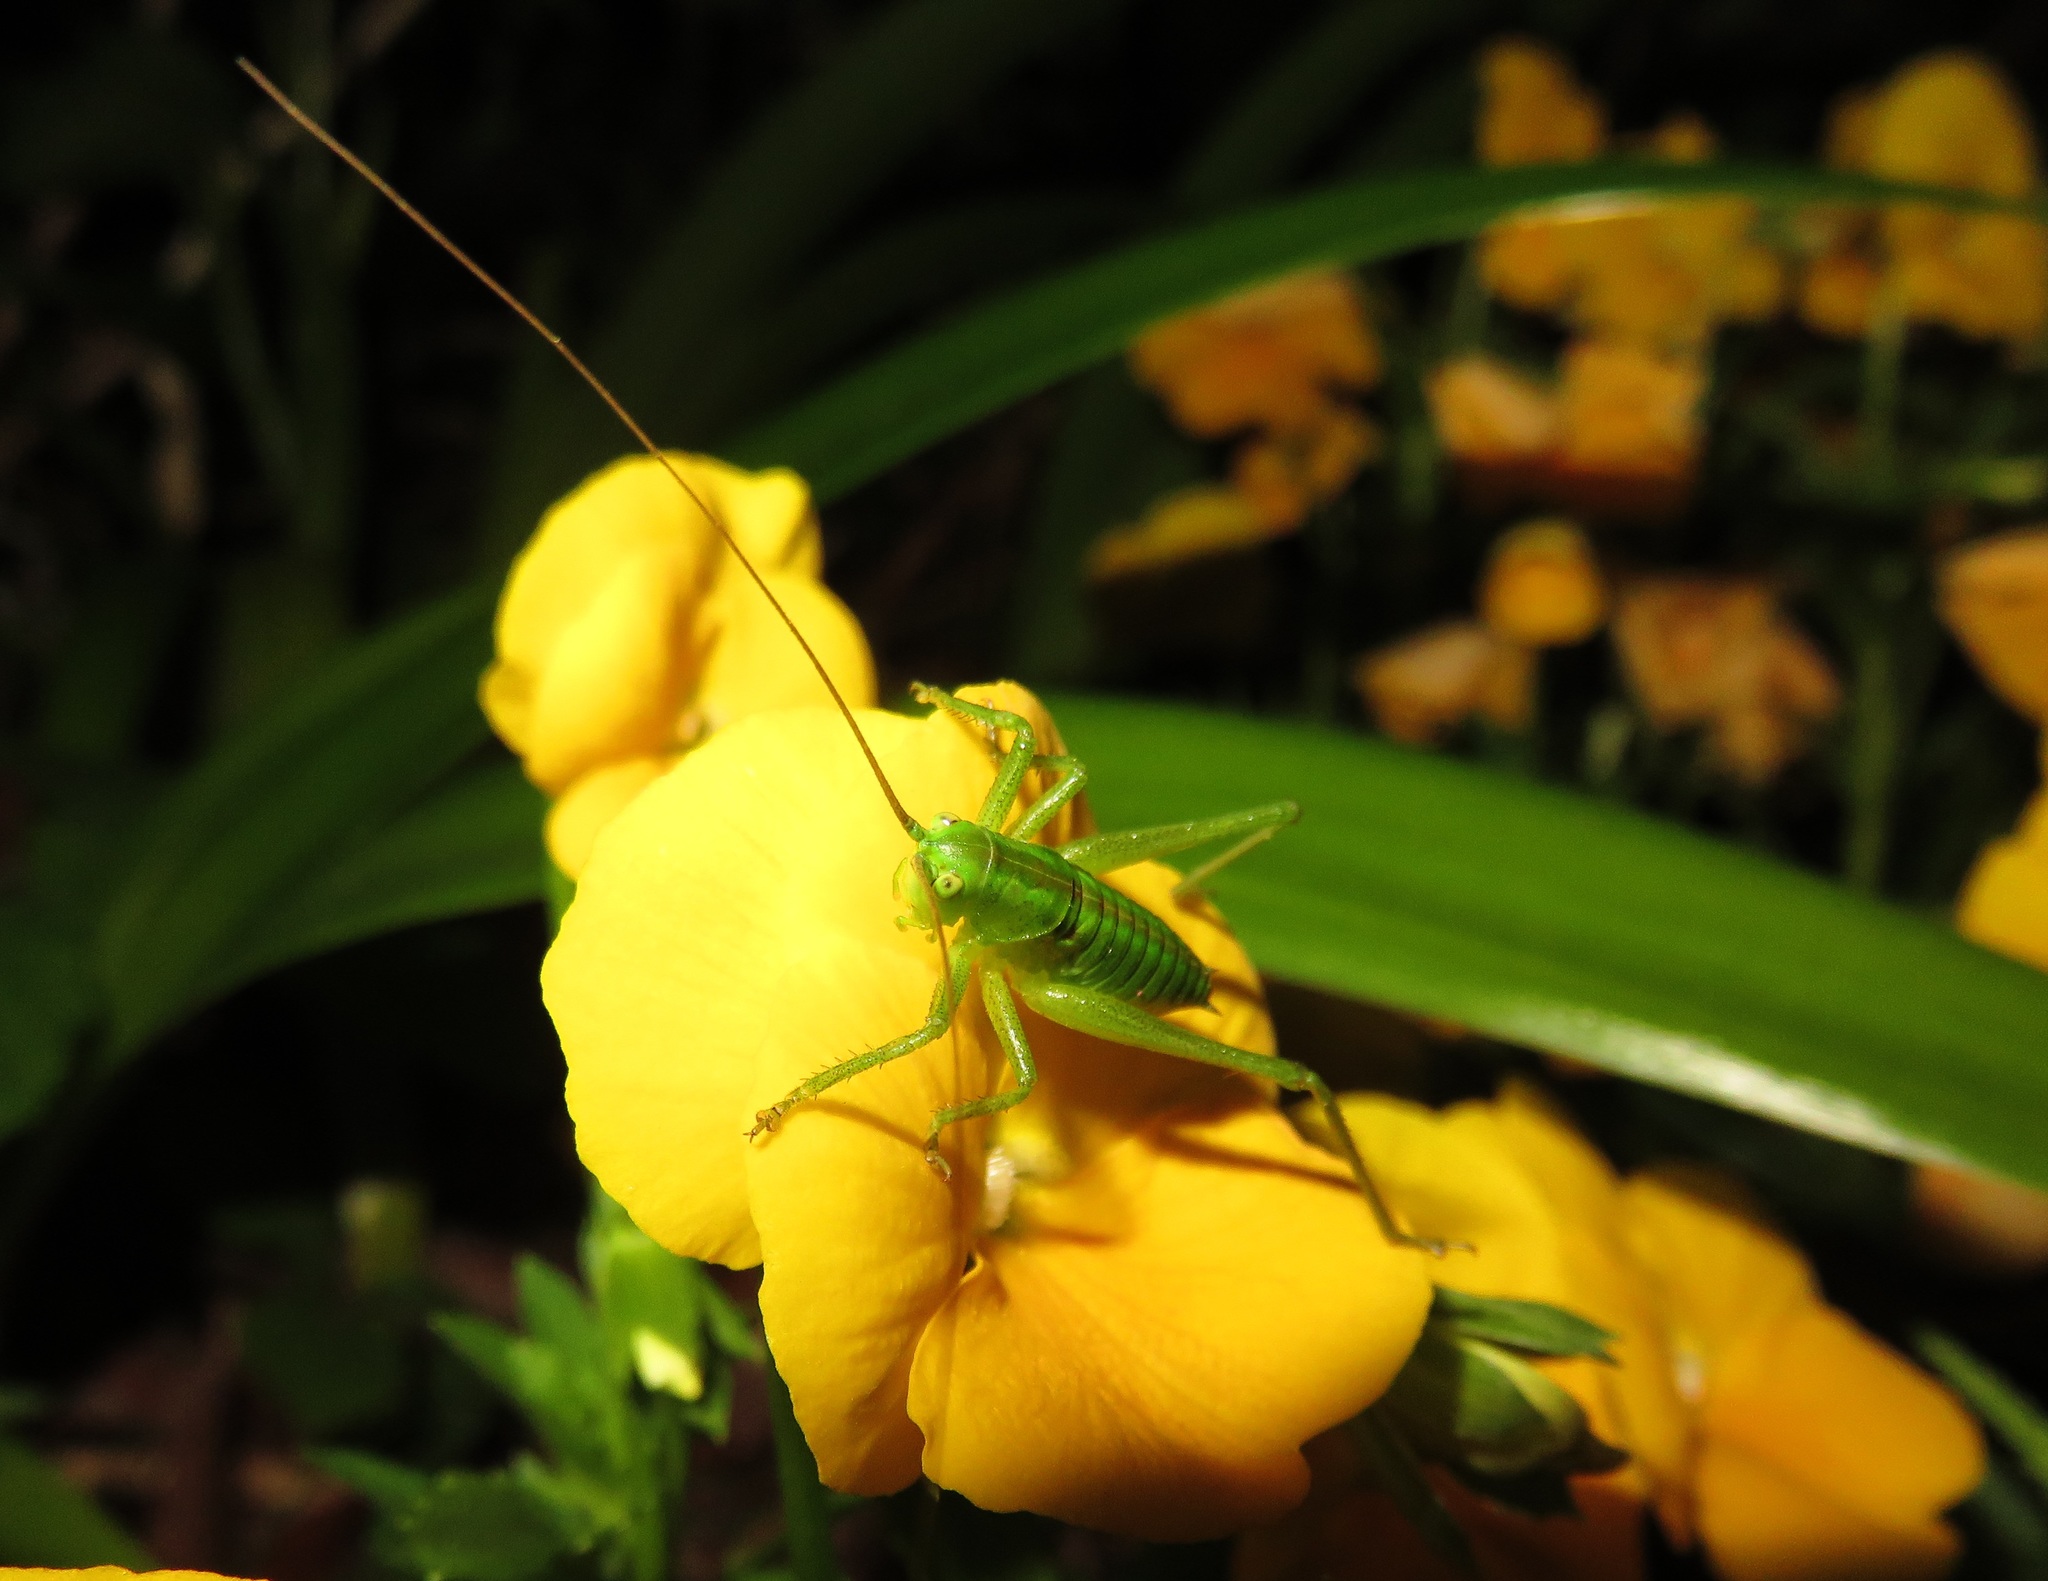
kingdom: Animalia
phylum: Arthropoda
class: Insecta
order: Orthoptera
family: Tettigoniidae
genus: Tettigonia
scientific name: Tettigonia orientalis
